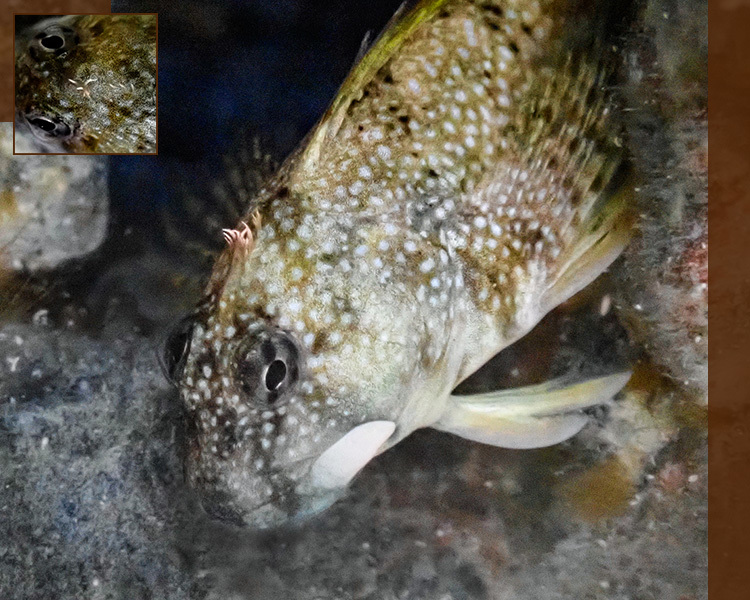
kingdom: Animalia
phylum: Chordata
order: Perciformes
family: Blenniidae
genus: Coryphoblennius
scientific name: Coryphoblennius galerita
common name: Montagu's blenny
